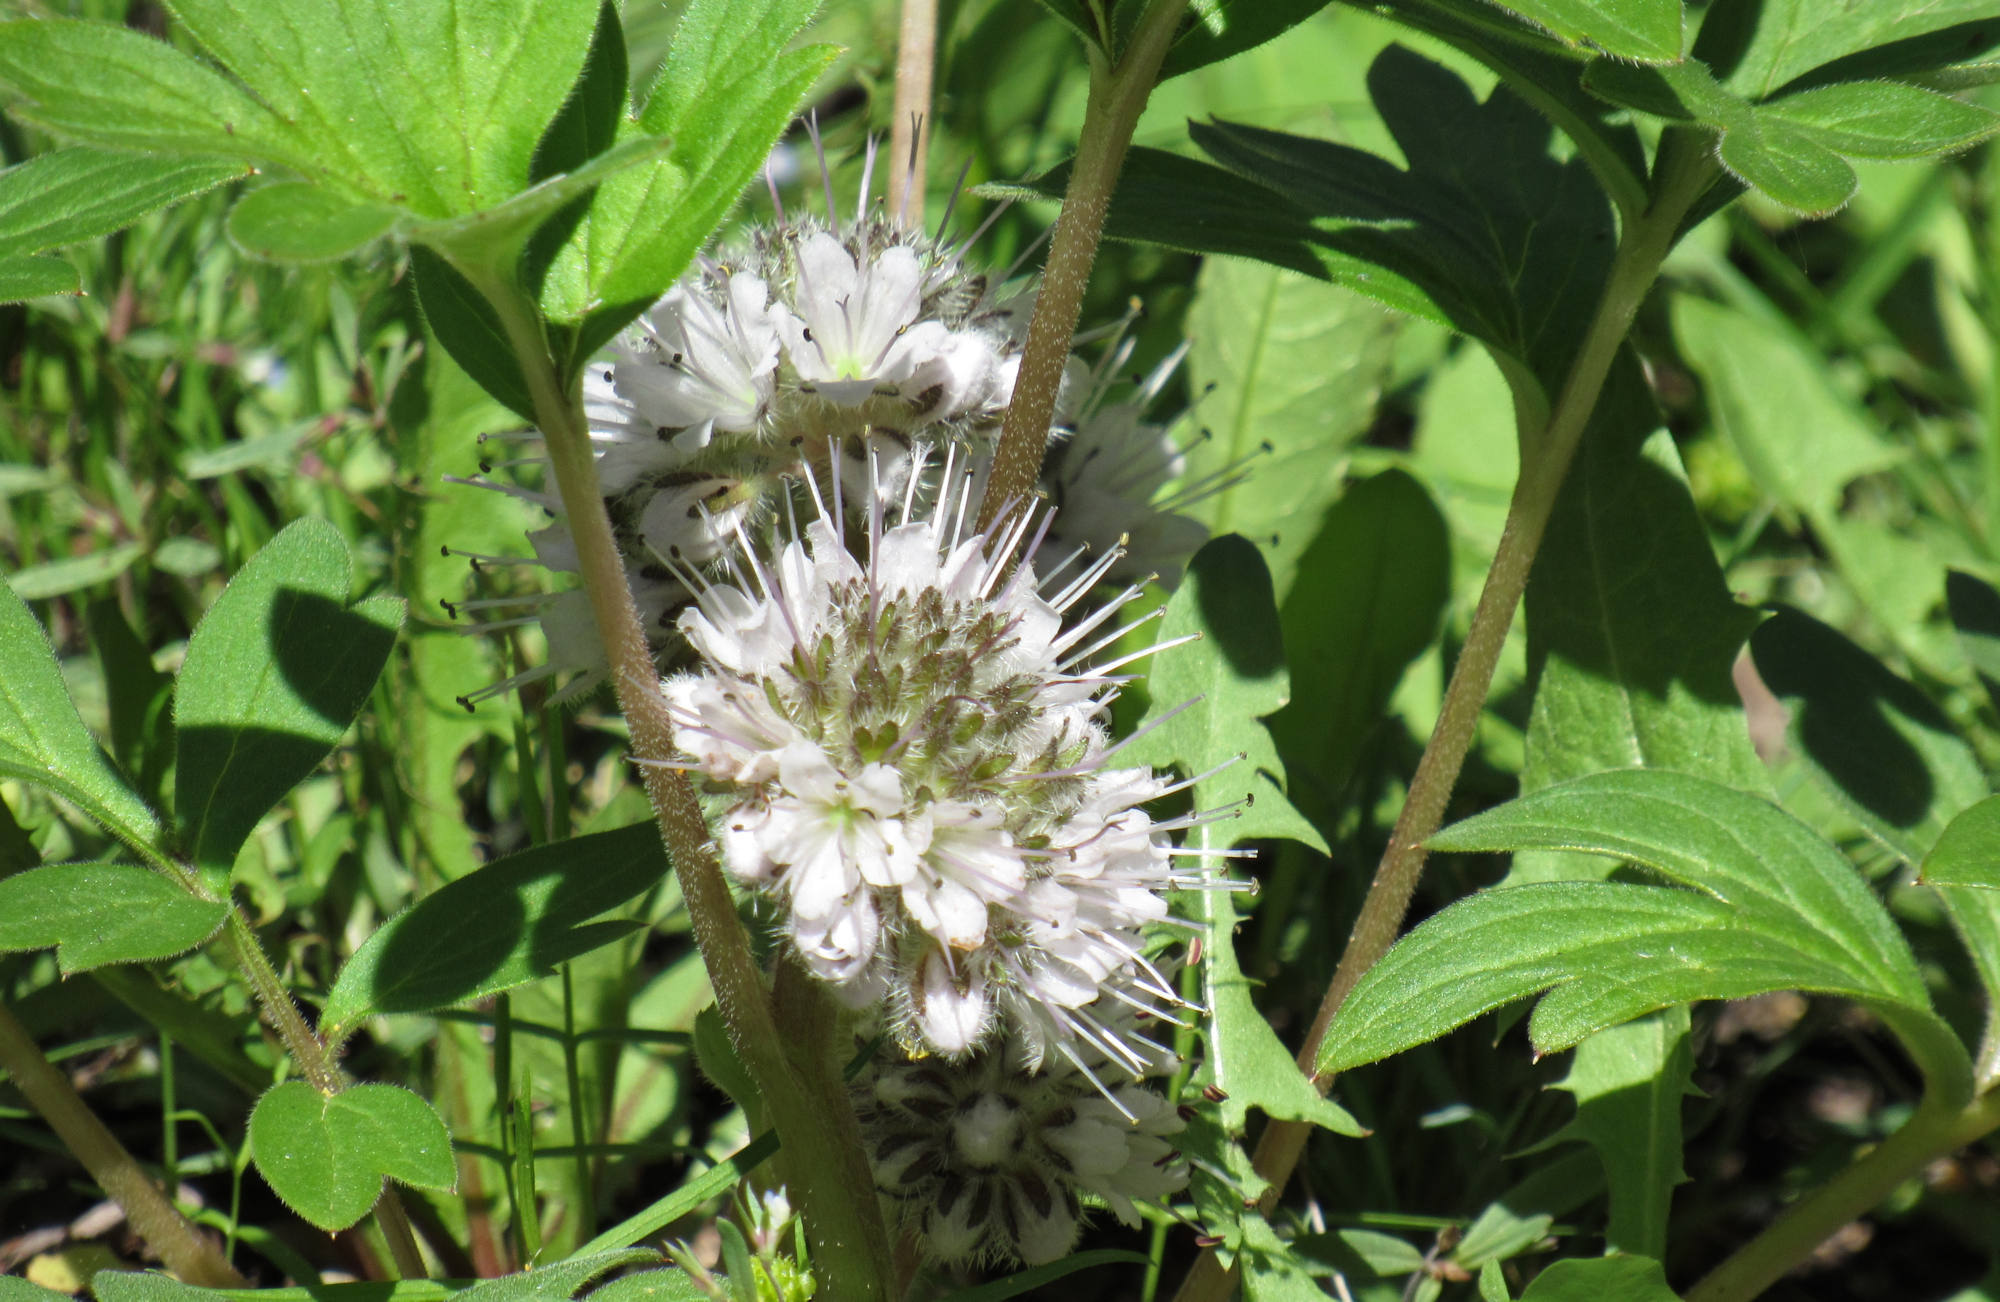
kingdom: Plantae
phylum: Tracheophyta
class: Magnoliopsida
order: Boraginales
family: Hydrophyllaceae
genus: Hydrophyllum
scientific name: Hydrophyllum capitatum
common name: Woollen-breeches
